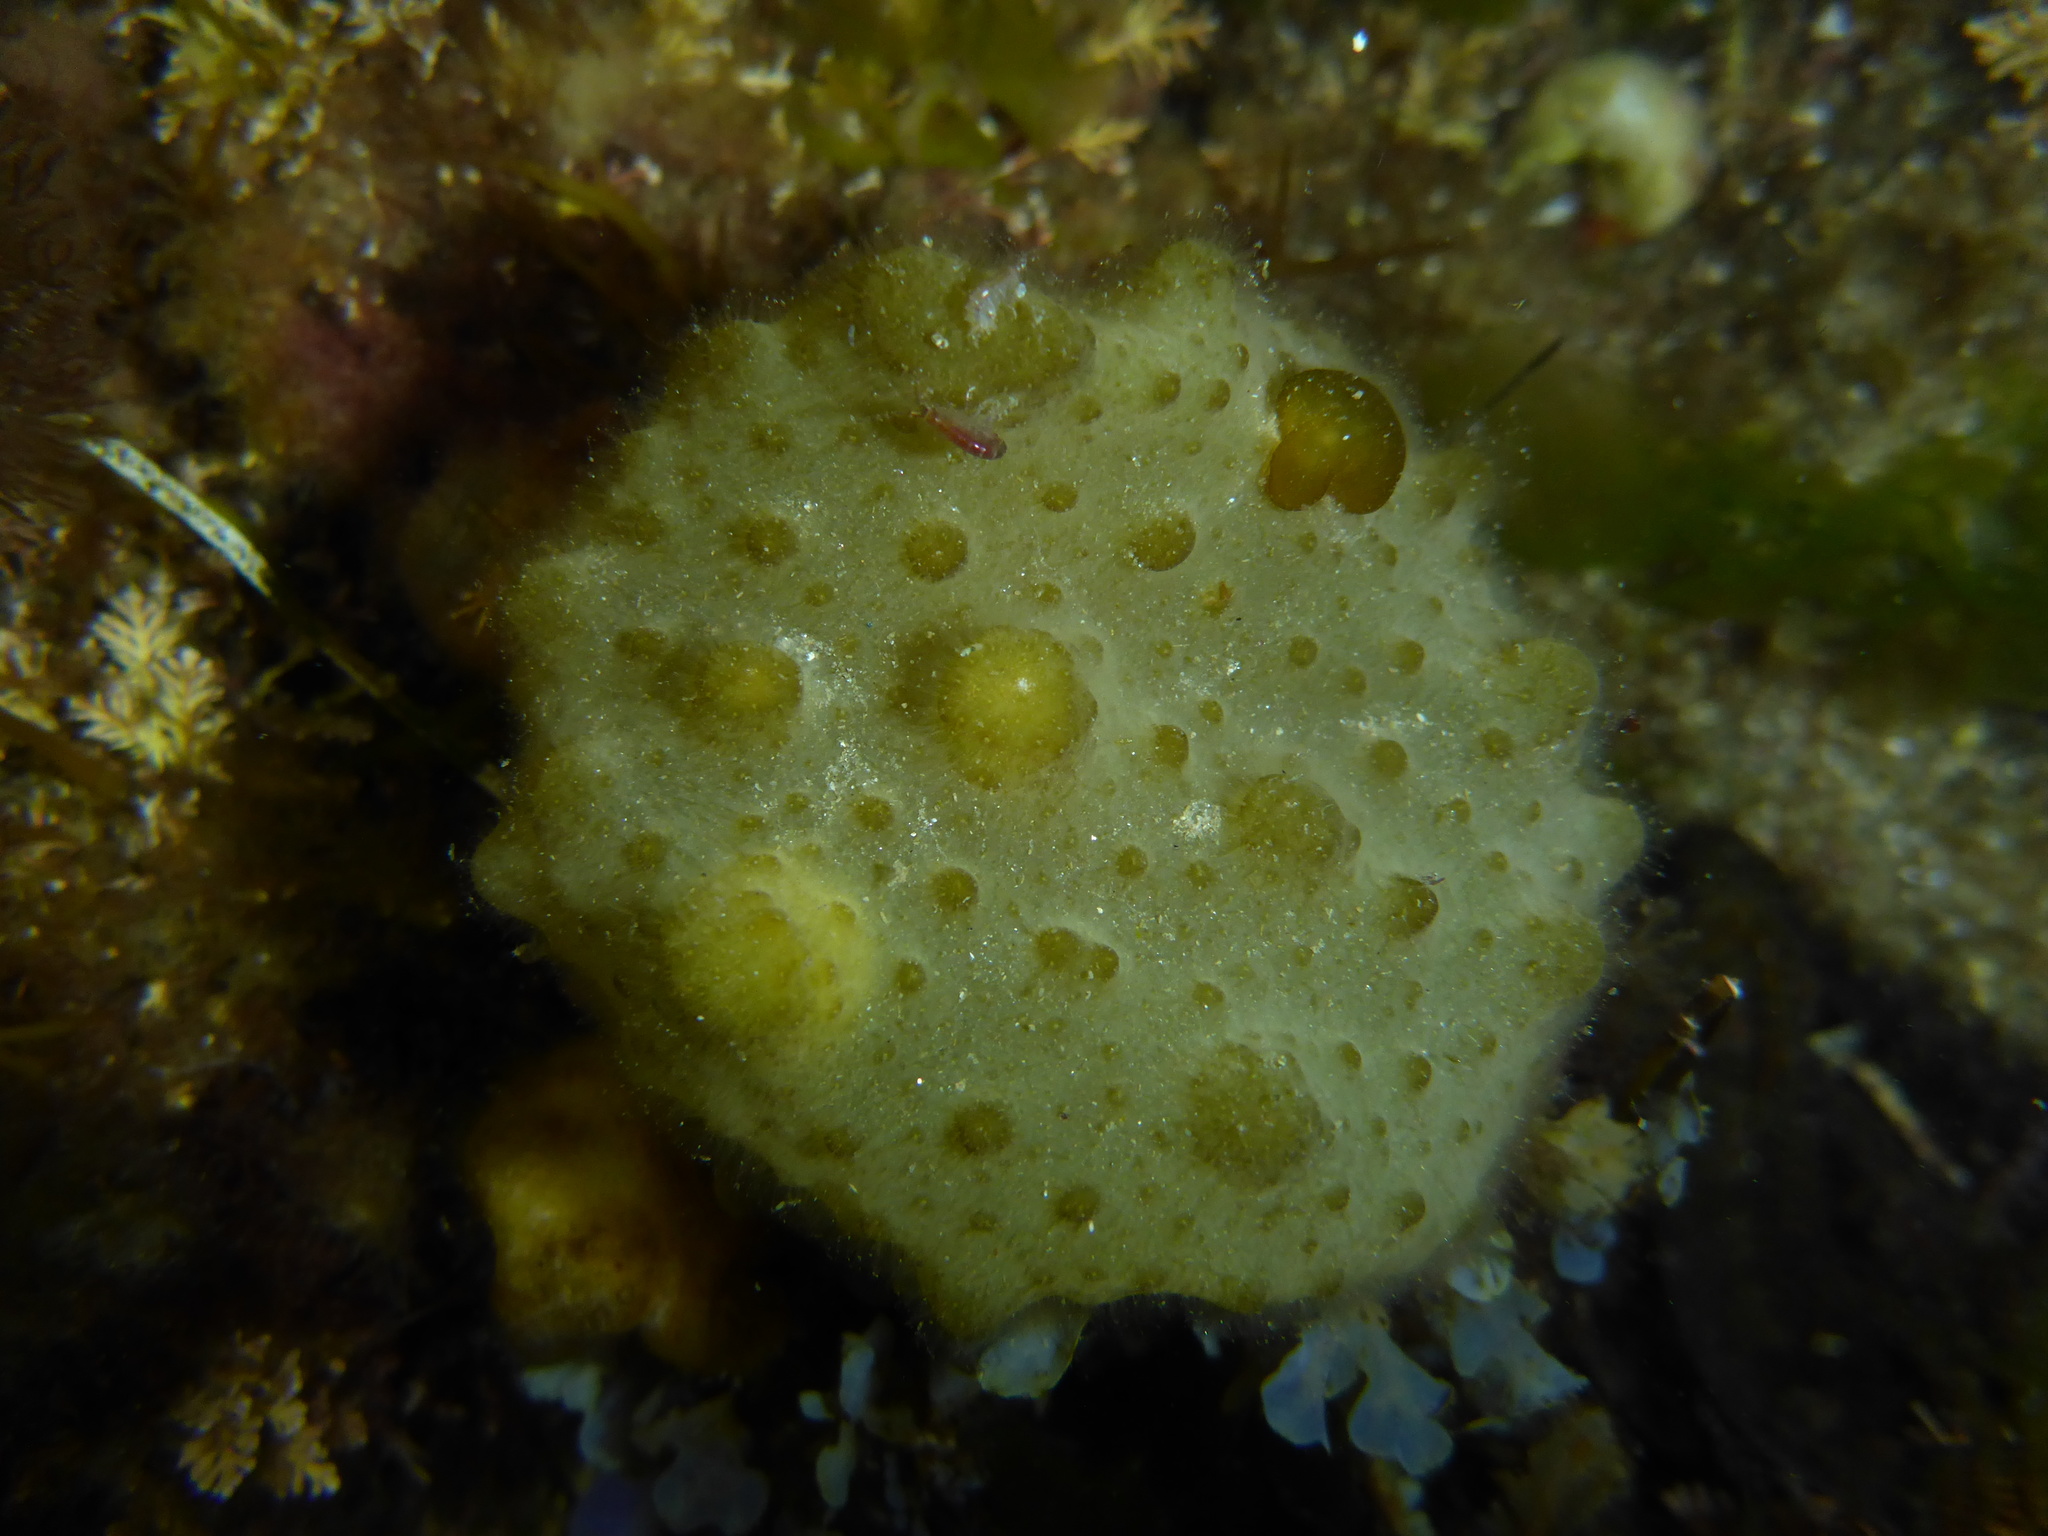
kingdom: Chromista
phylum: Ochrophyta
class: Phaeophyceae
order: Scytosiphonales
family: Scytosiphonaceae
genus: Colpomenia
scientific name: Colpomenia
